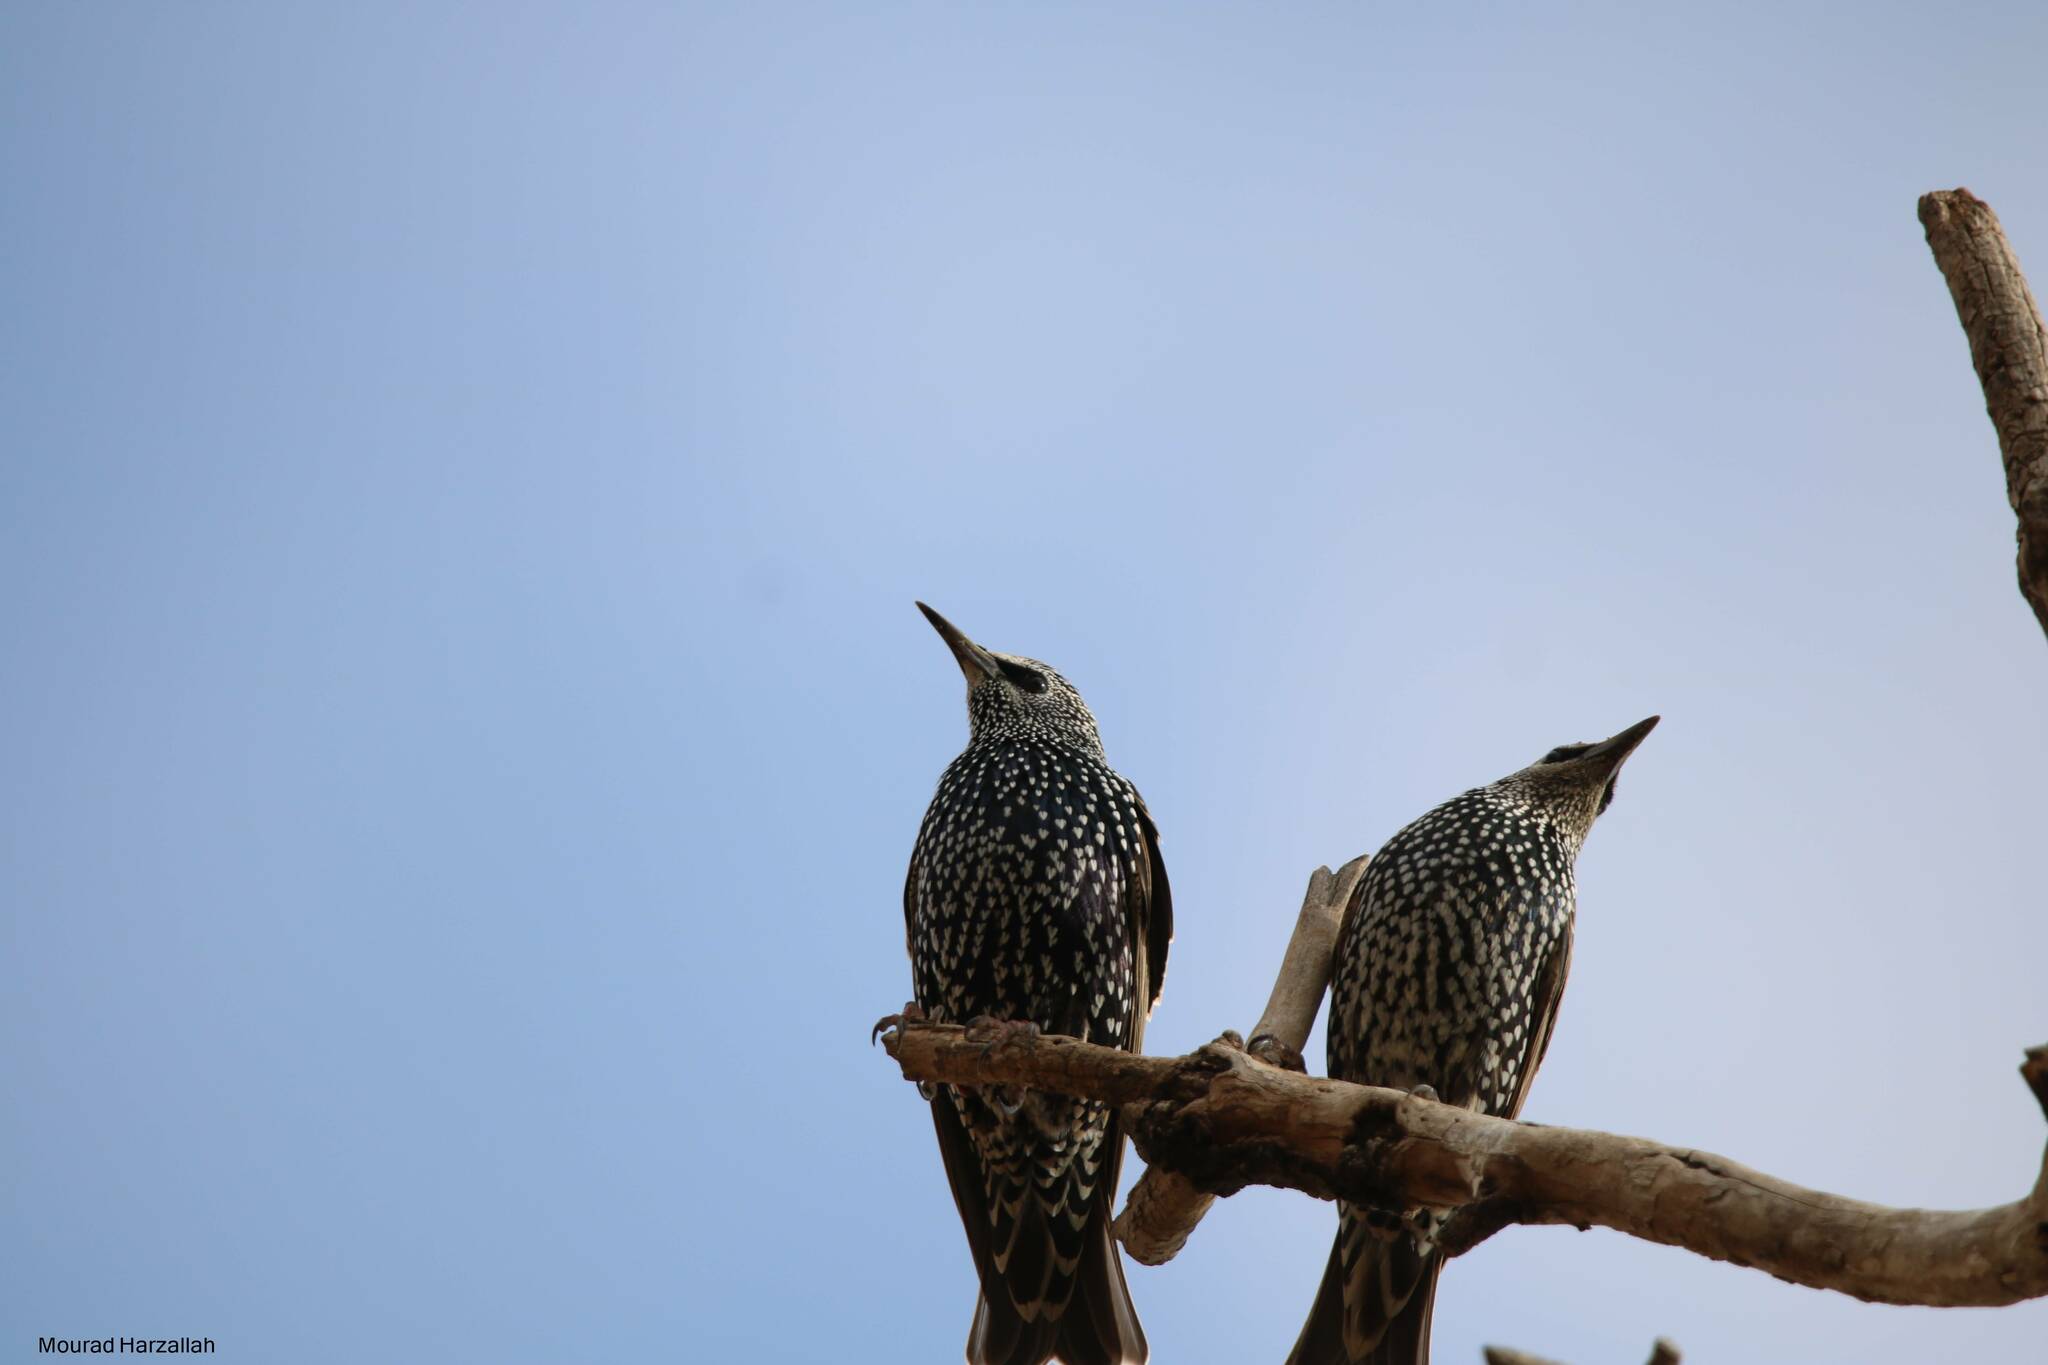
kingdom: Animalia
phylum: Chordata
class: Aves
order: Passeriformes
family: Sturnidae
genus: Sturnus
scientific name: Sturnus vulgaris
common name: Common starling
